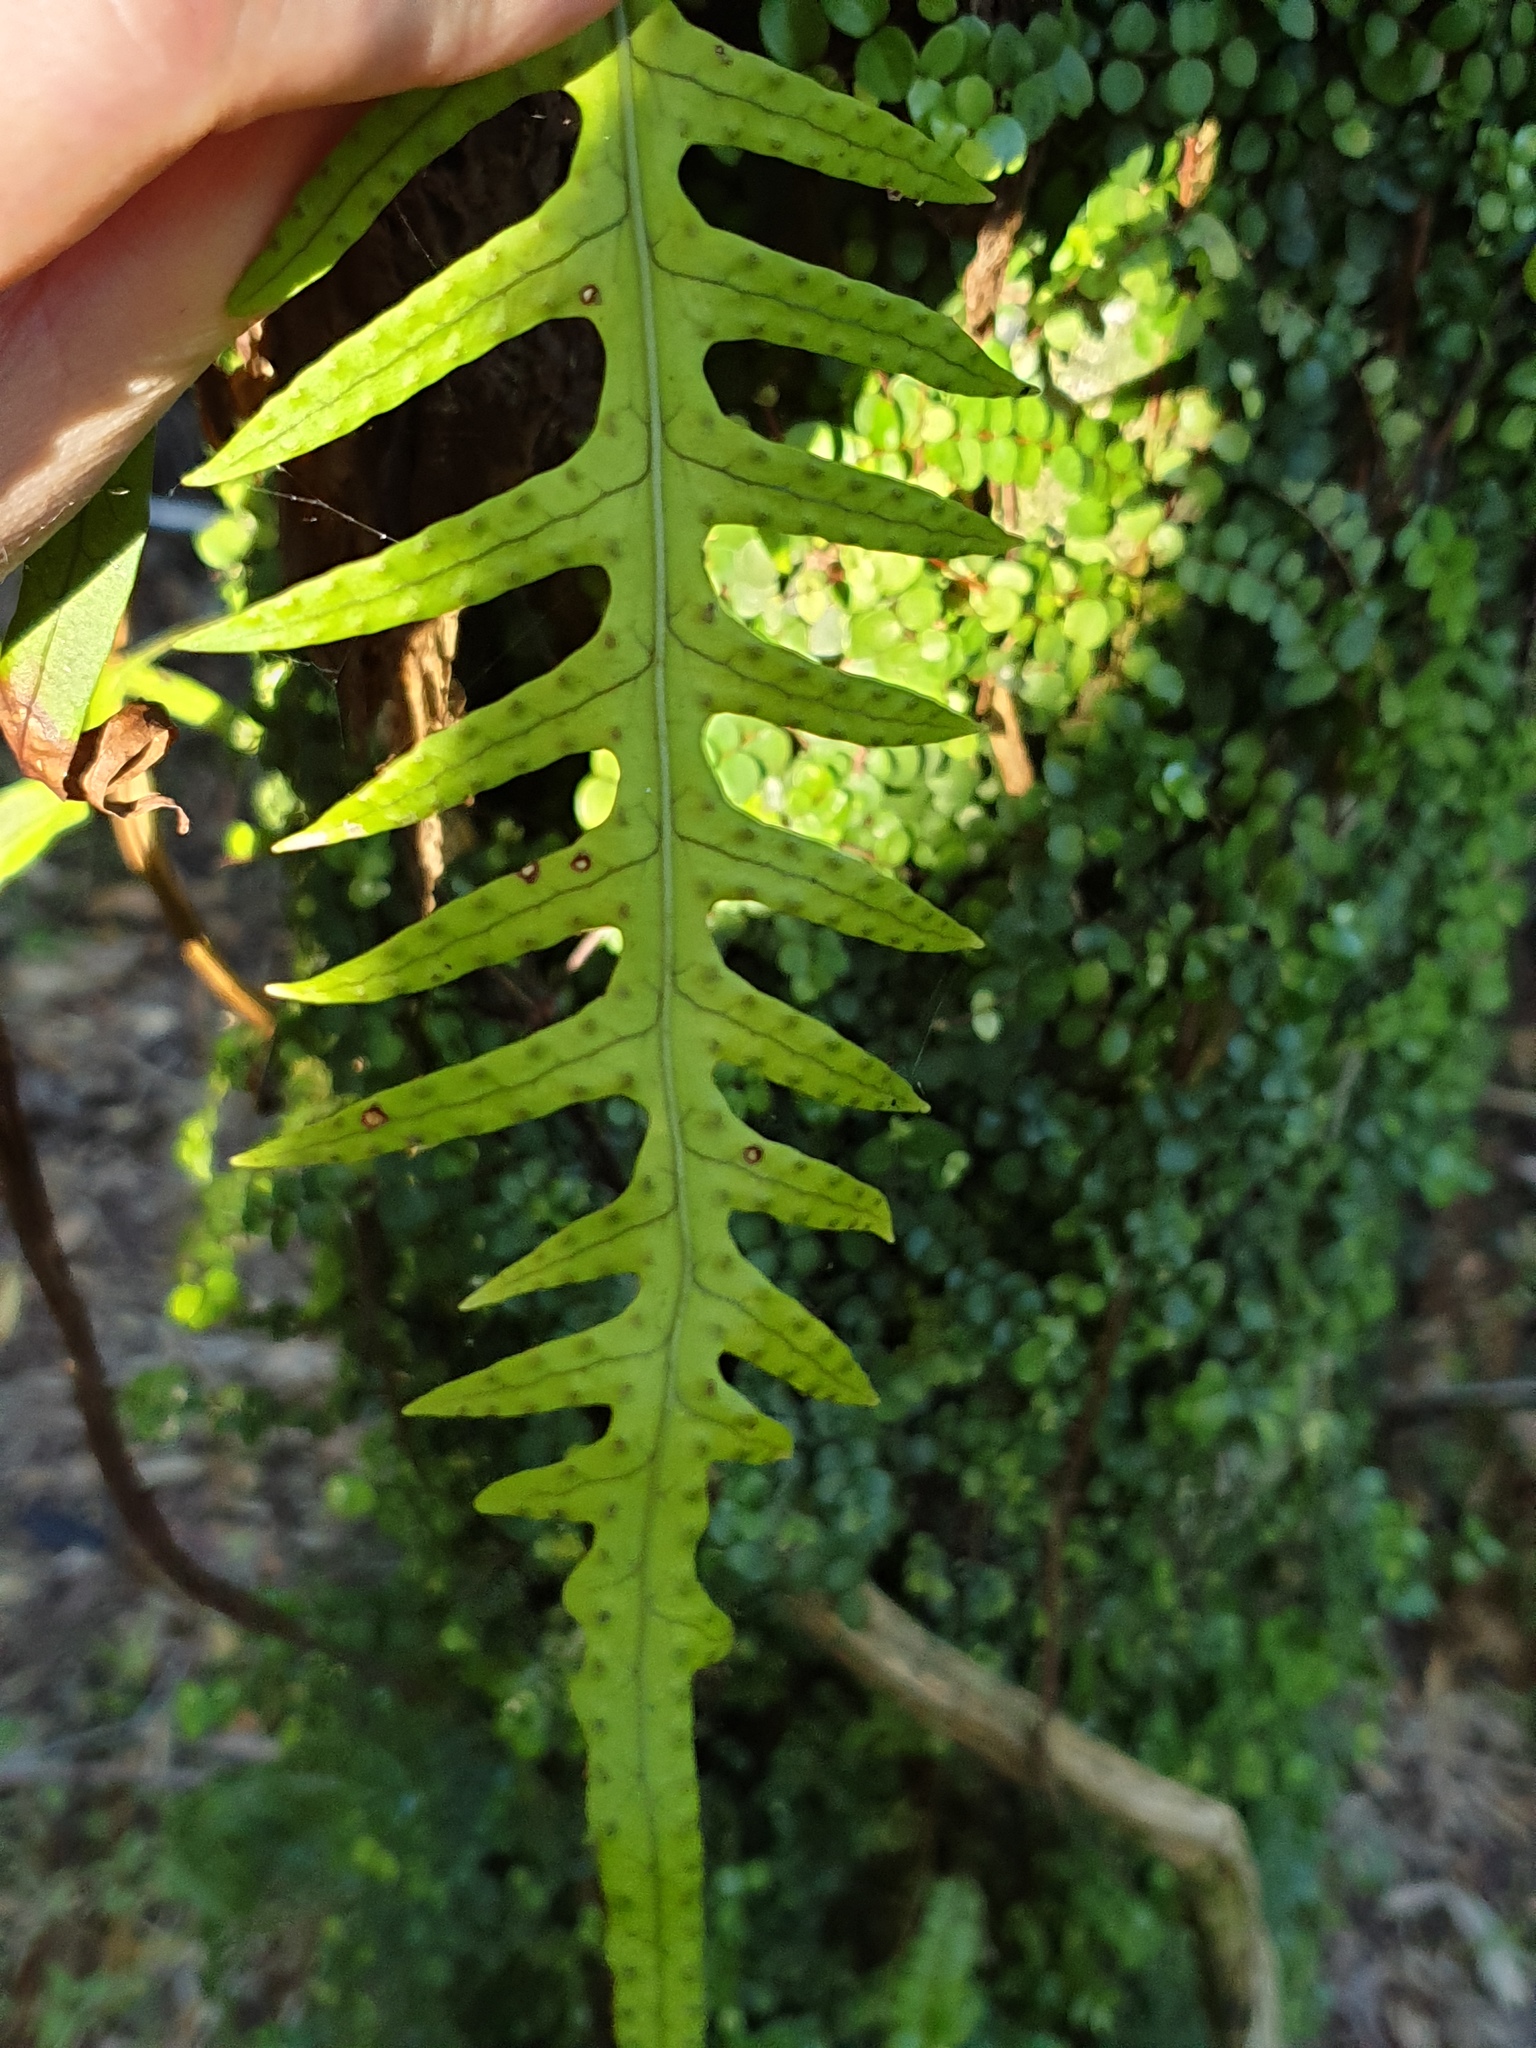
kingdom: Plantae
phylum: Tracheophyta
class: Polypodiopsida
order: Polypodiales
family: Polypodiaceae
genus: Lecanopteris
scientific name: Lecanopteris scandens
